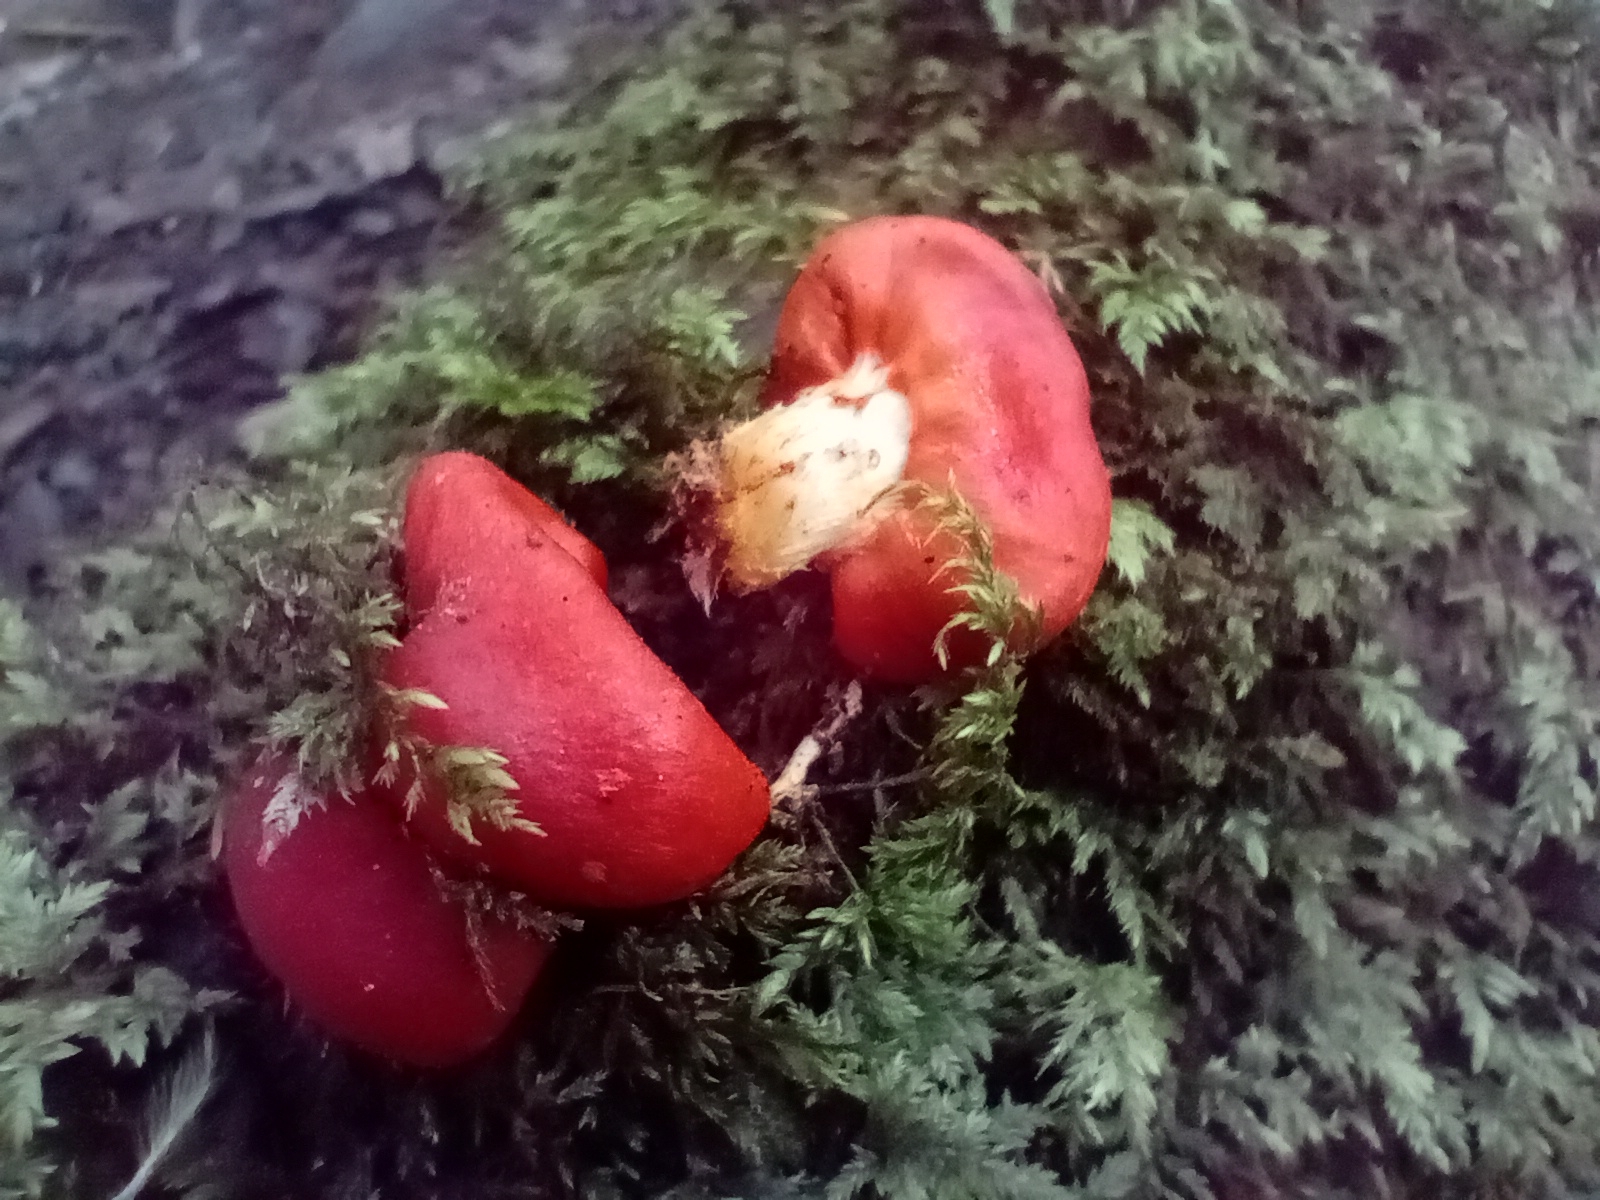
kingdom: Fungi
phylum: Basidiomycota
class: Agaricomycetes
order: Agaricales
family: Strophariaceae
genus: Leratiomyces
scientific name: Leratiomyces erythrocephalus
